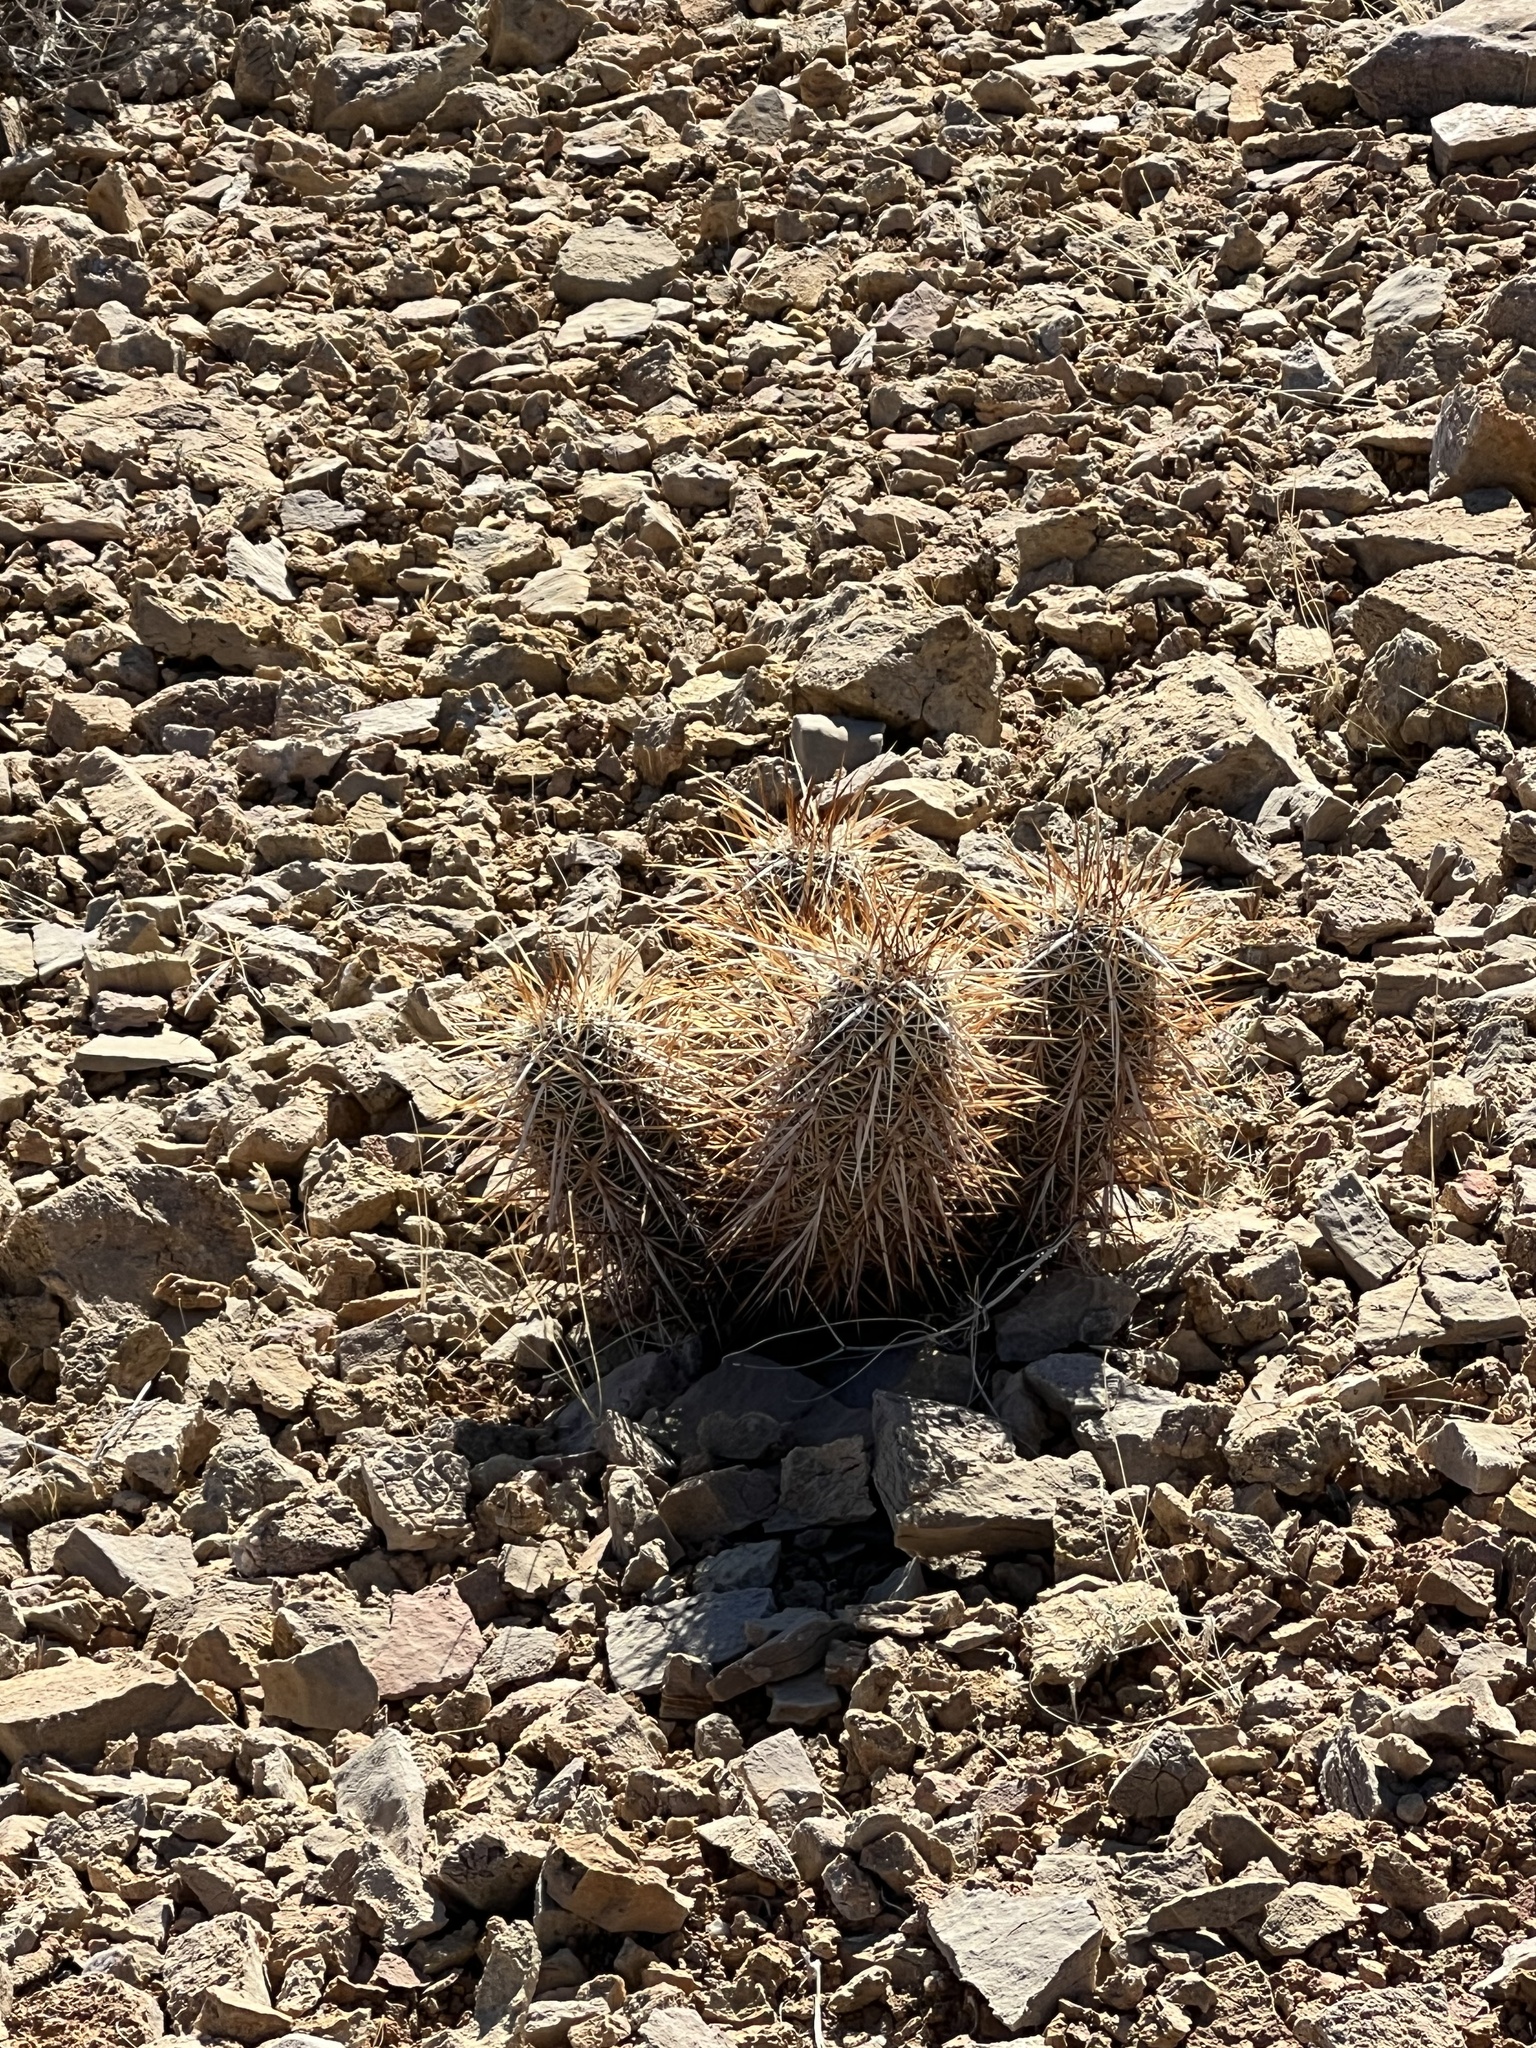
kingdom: Plantae
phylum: Tracheophyta
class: Magnoliopsida
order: Caryophyllales
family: Cactaceae
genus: Echinocereus
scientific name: Echinocereus engelmannii
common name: Engelmann's hedgehog cactus
